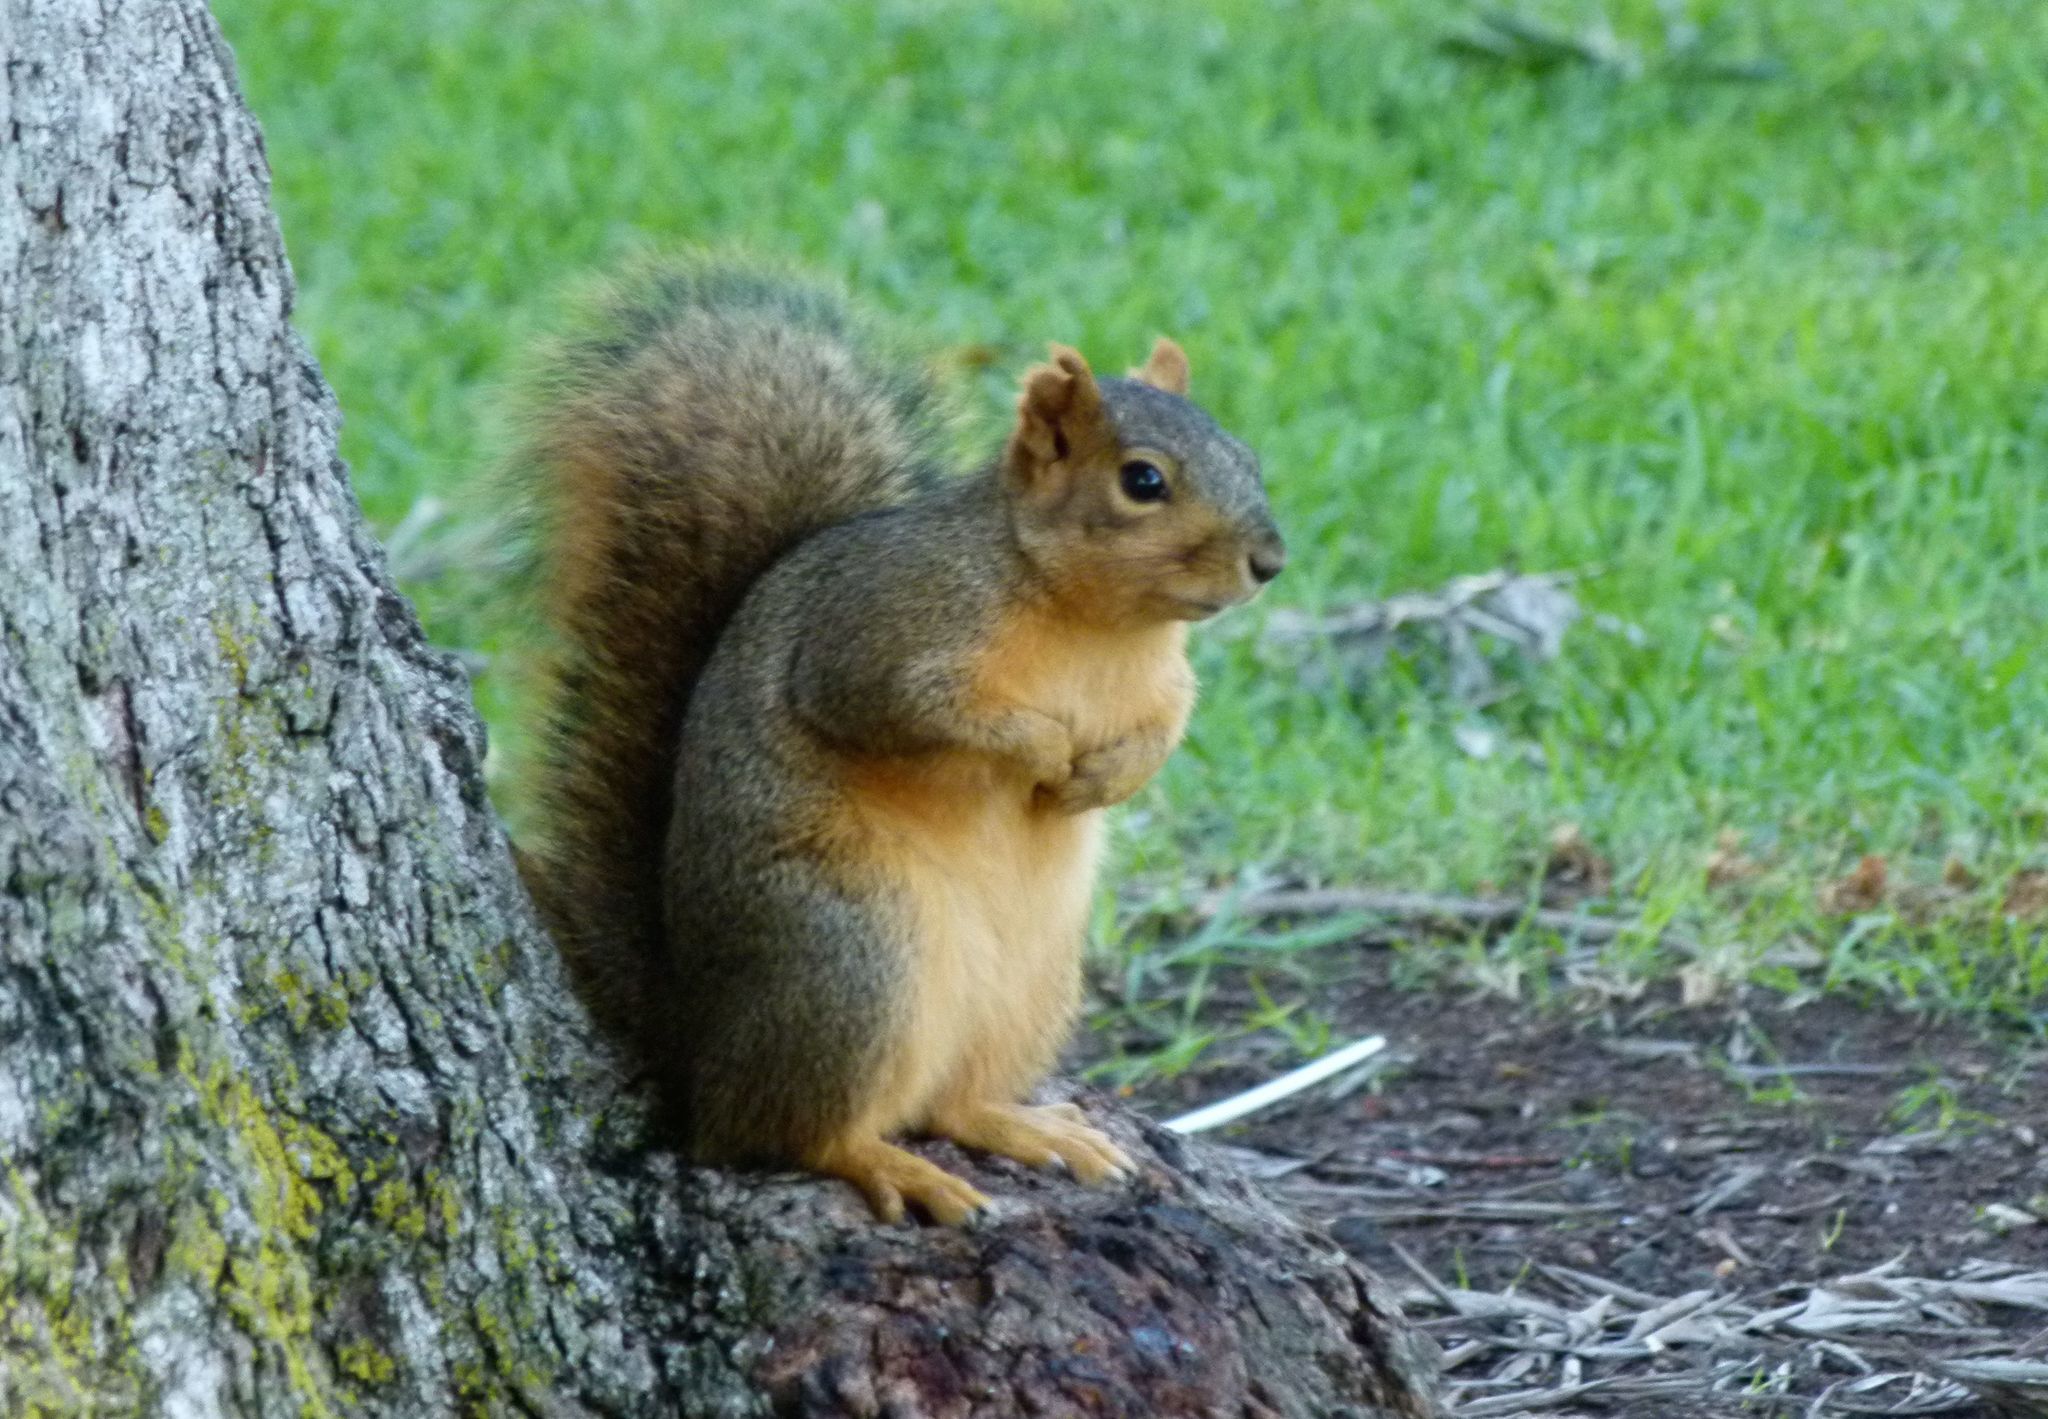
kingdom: Animalia
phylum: Chordata
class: Mammalia
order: Rodentia
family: Sciuridae
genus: Sciurus
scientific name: Sciurus niger
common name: Fox squirrel
